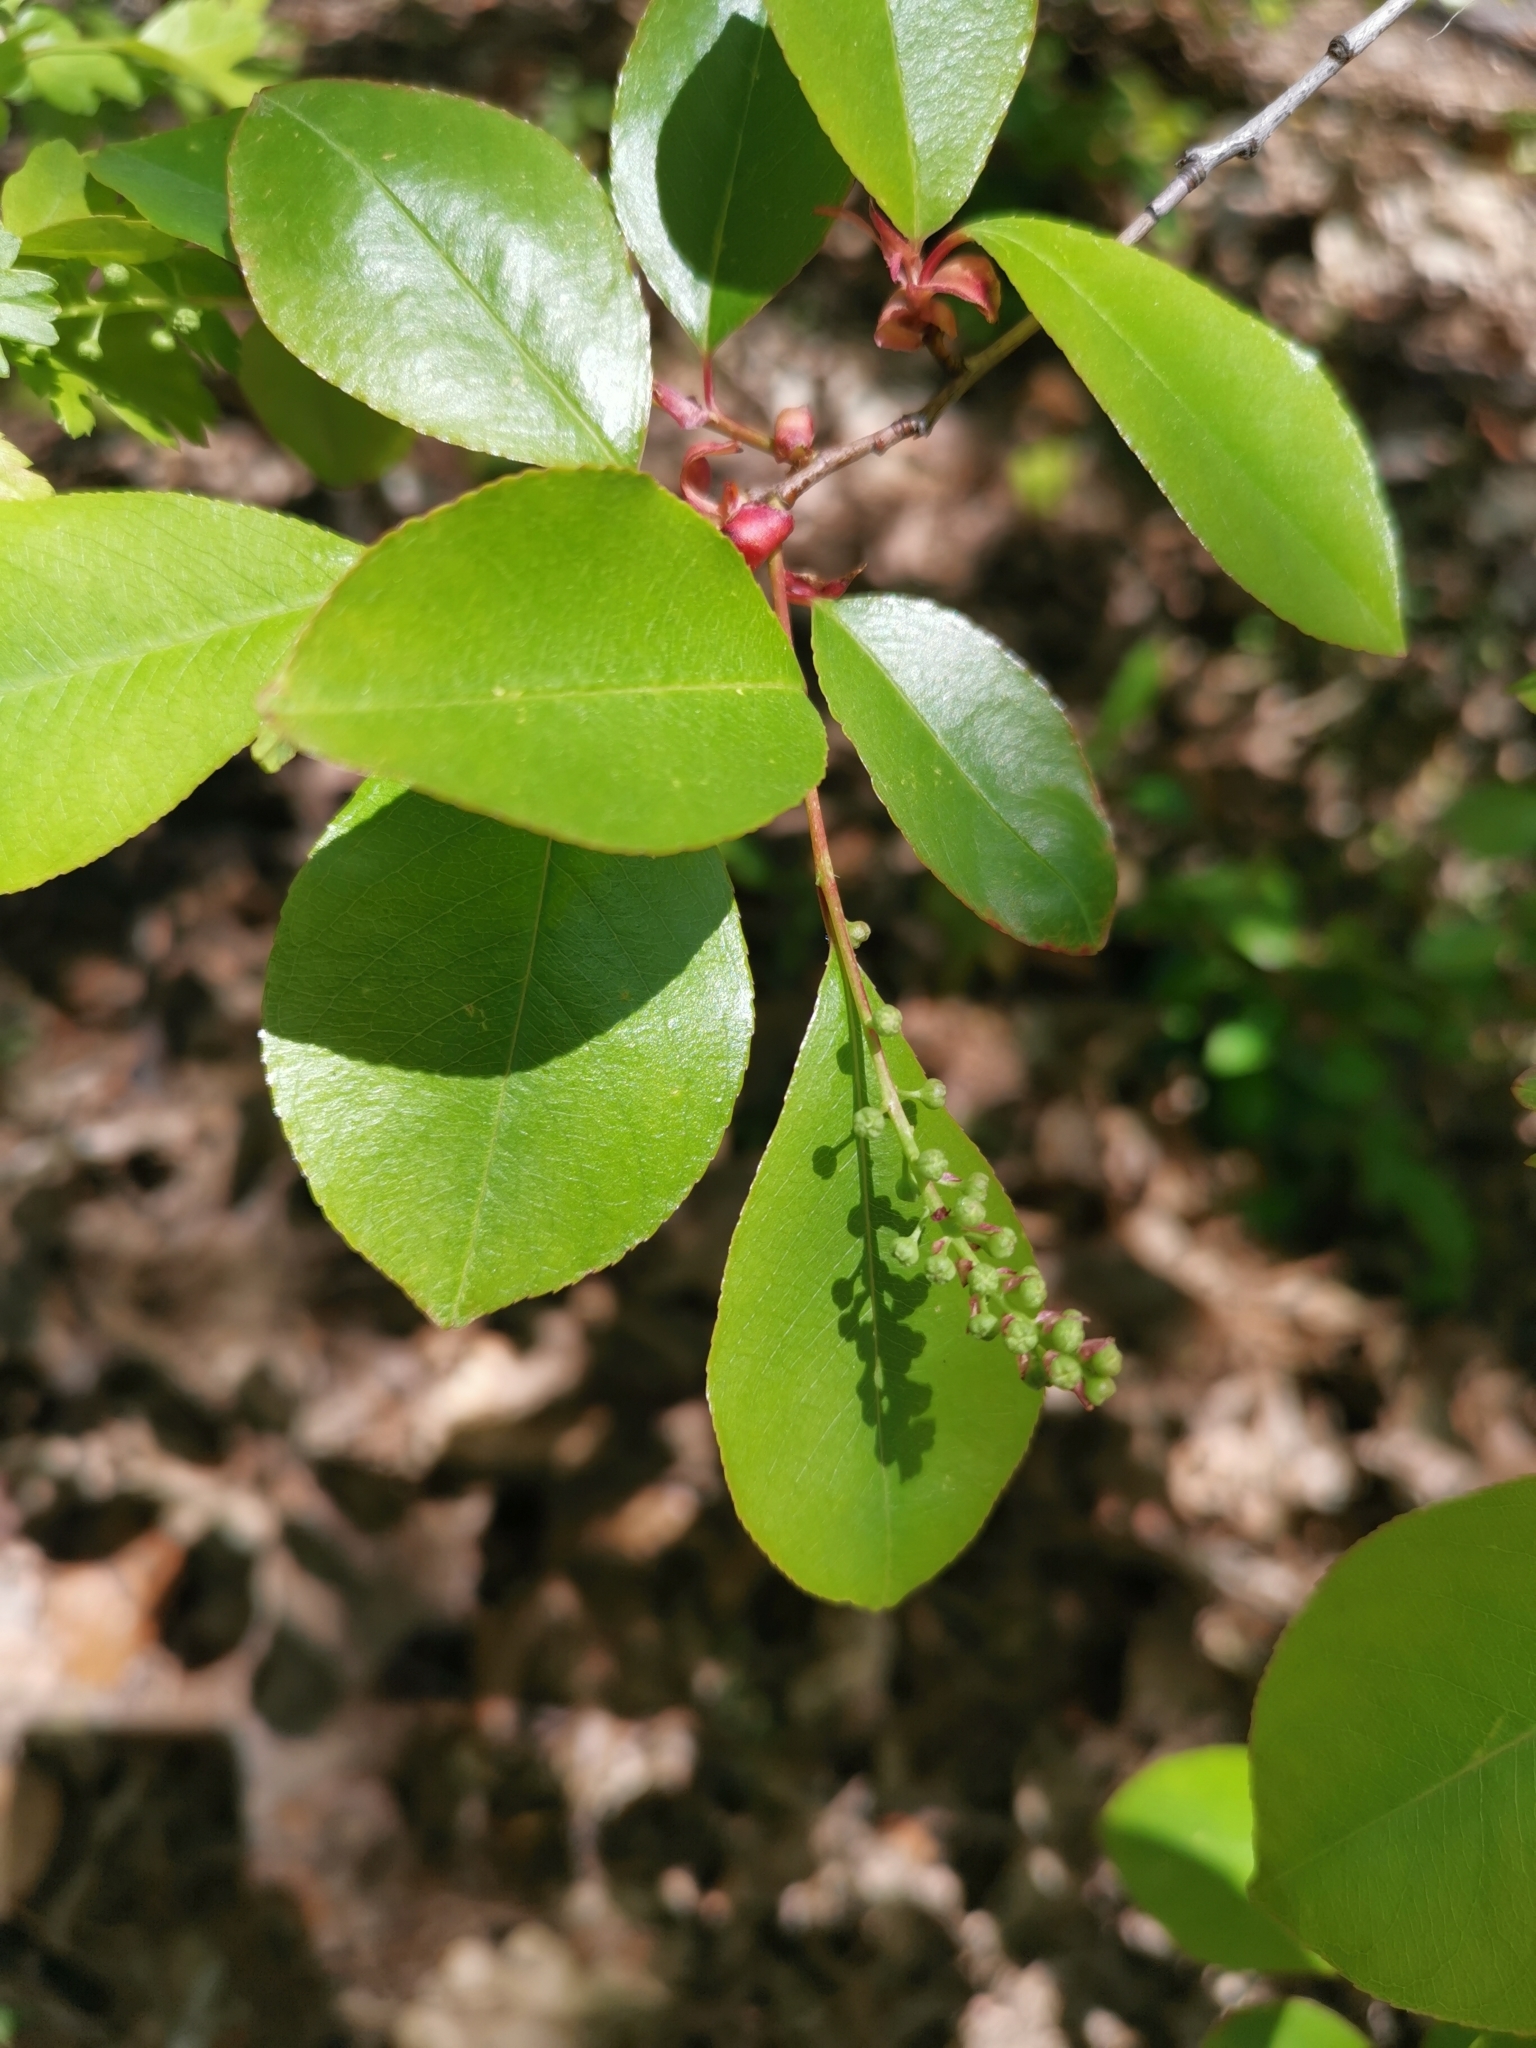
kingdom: Plantae
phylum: Tracheophyta
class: Magnoliopsida
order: Rosales
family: Rosaceae
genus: Prunus
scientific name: Prunus serotina
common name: Black cherry
